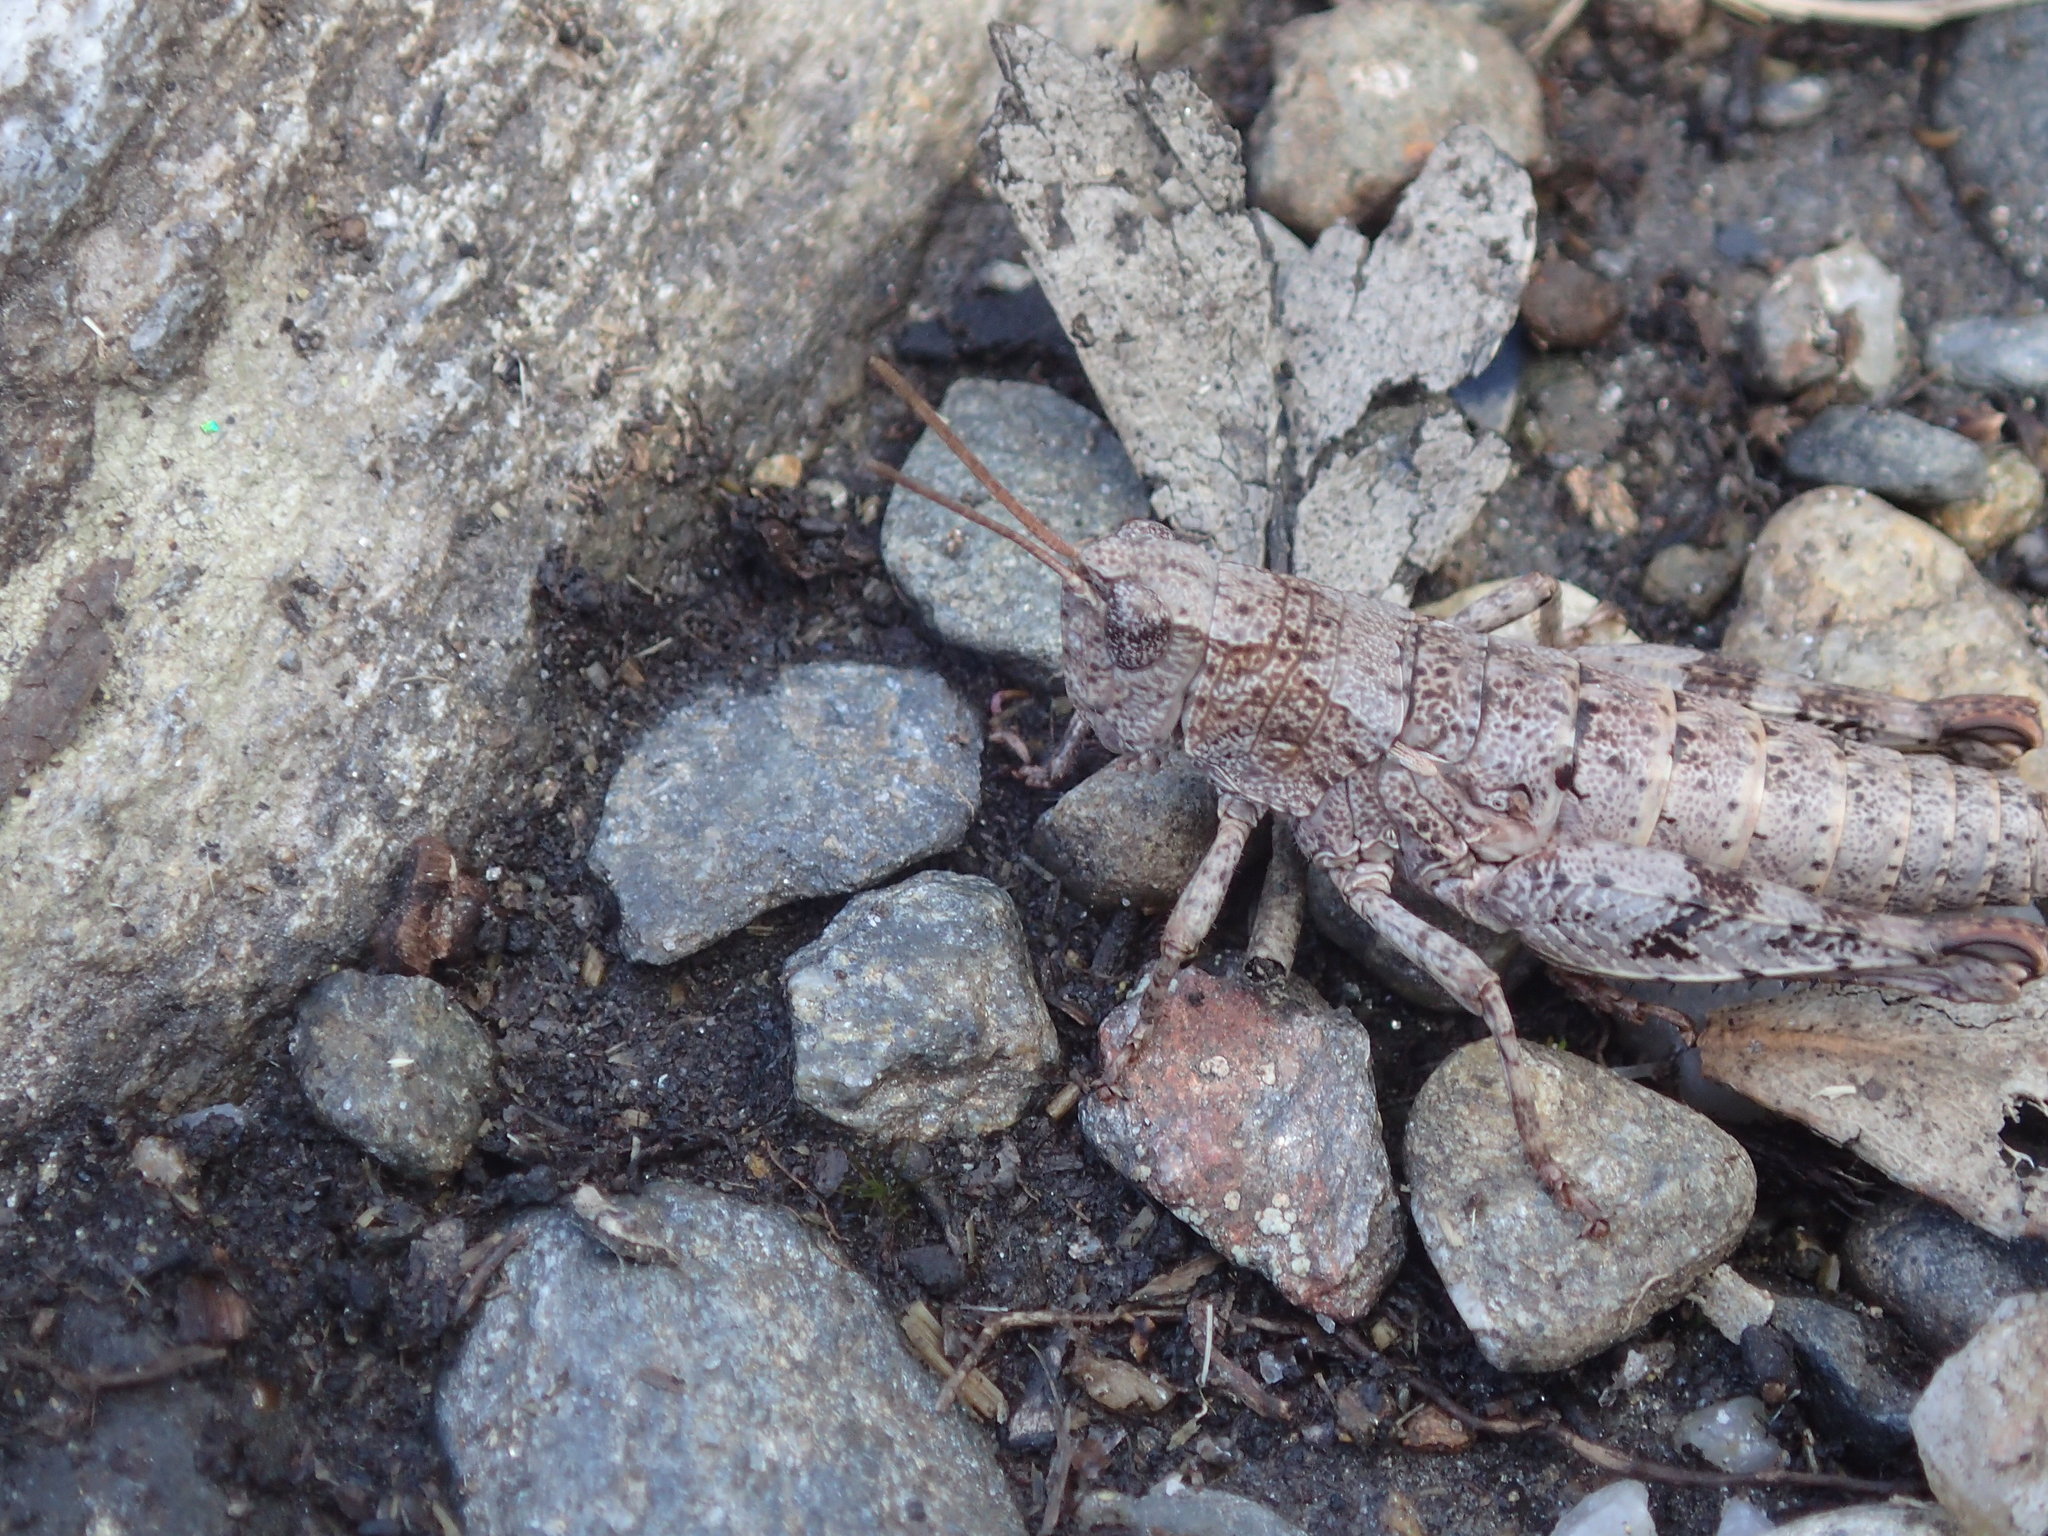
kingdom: Animalia
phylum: Arthropoda
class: Insecta
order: Orthoptera
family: Acrididae
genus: Tasmaniacris
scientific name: Tasmaniacris tasmaniensis
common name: Tasmanian grasshopper
